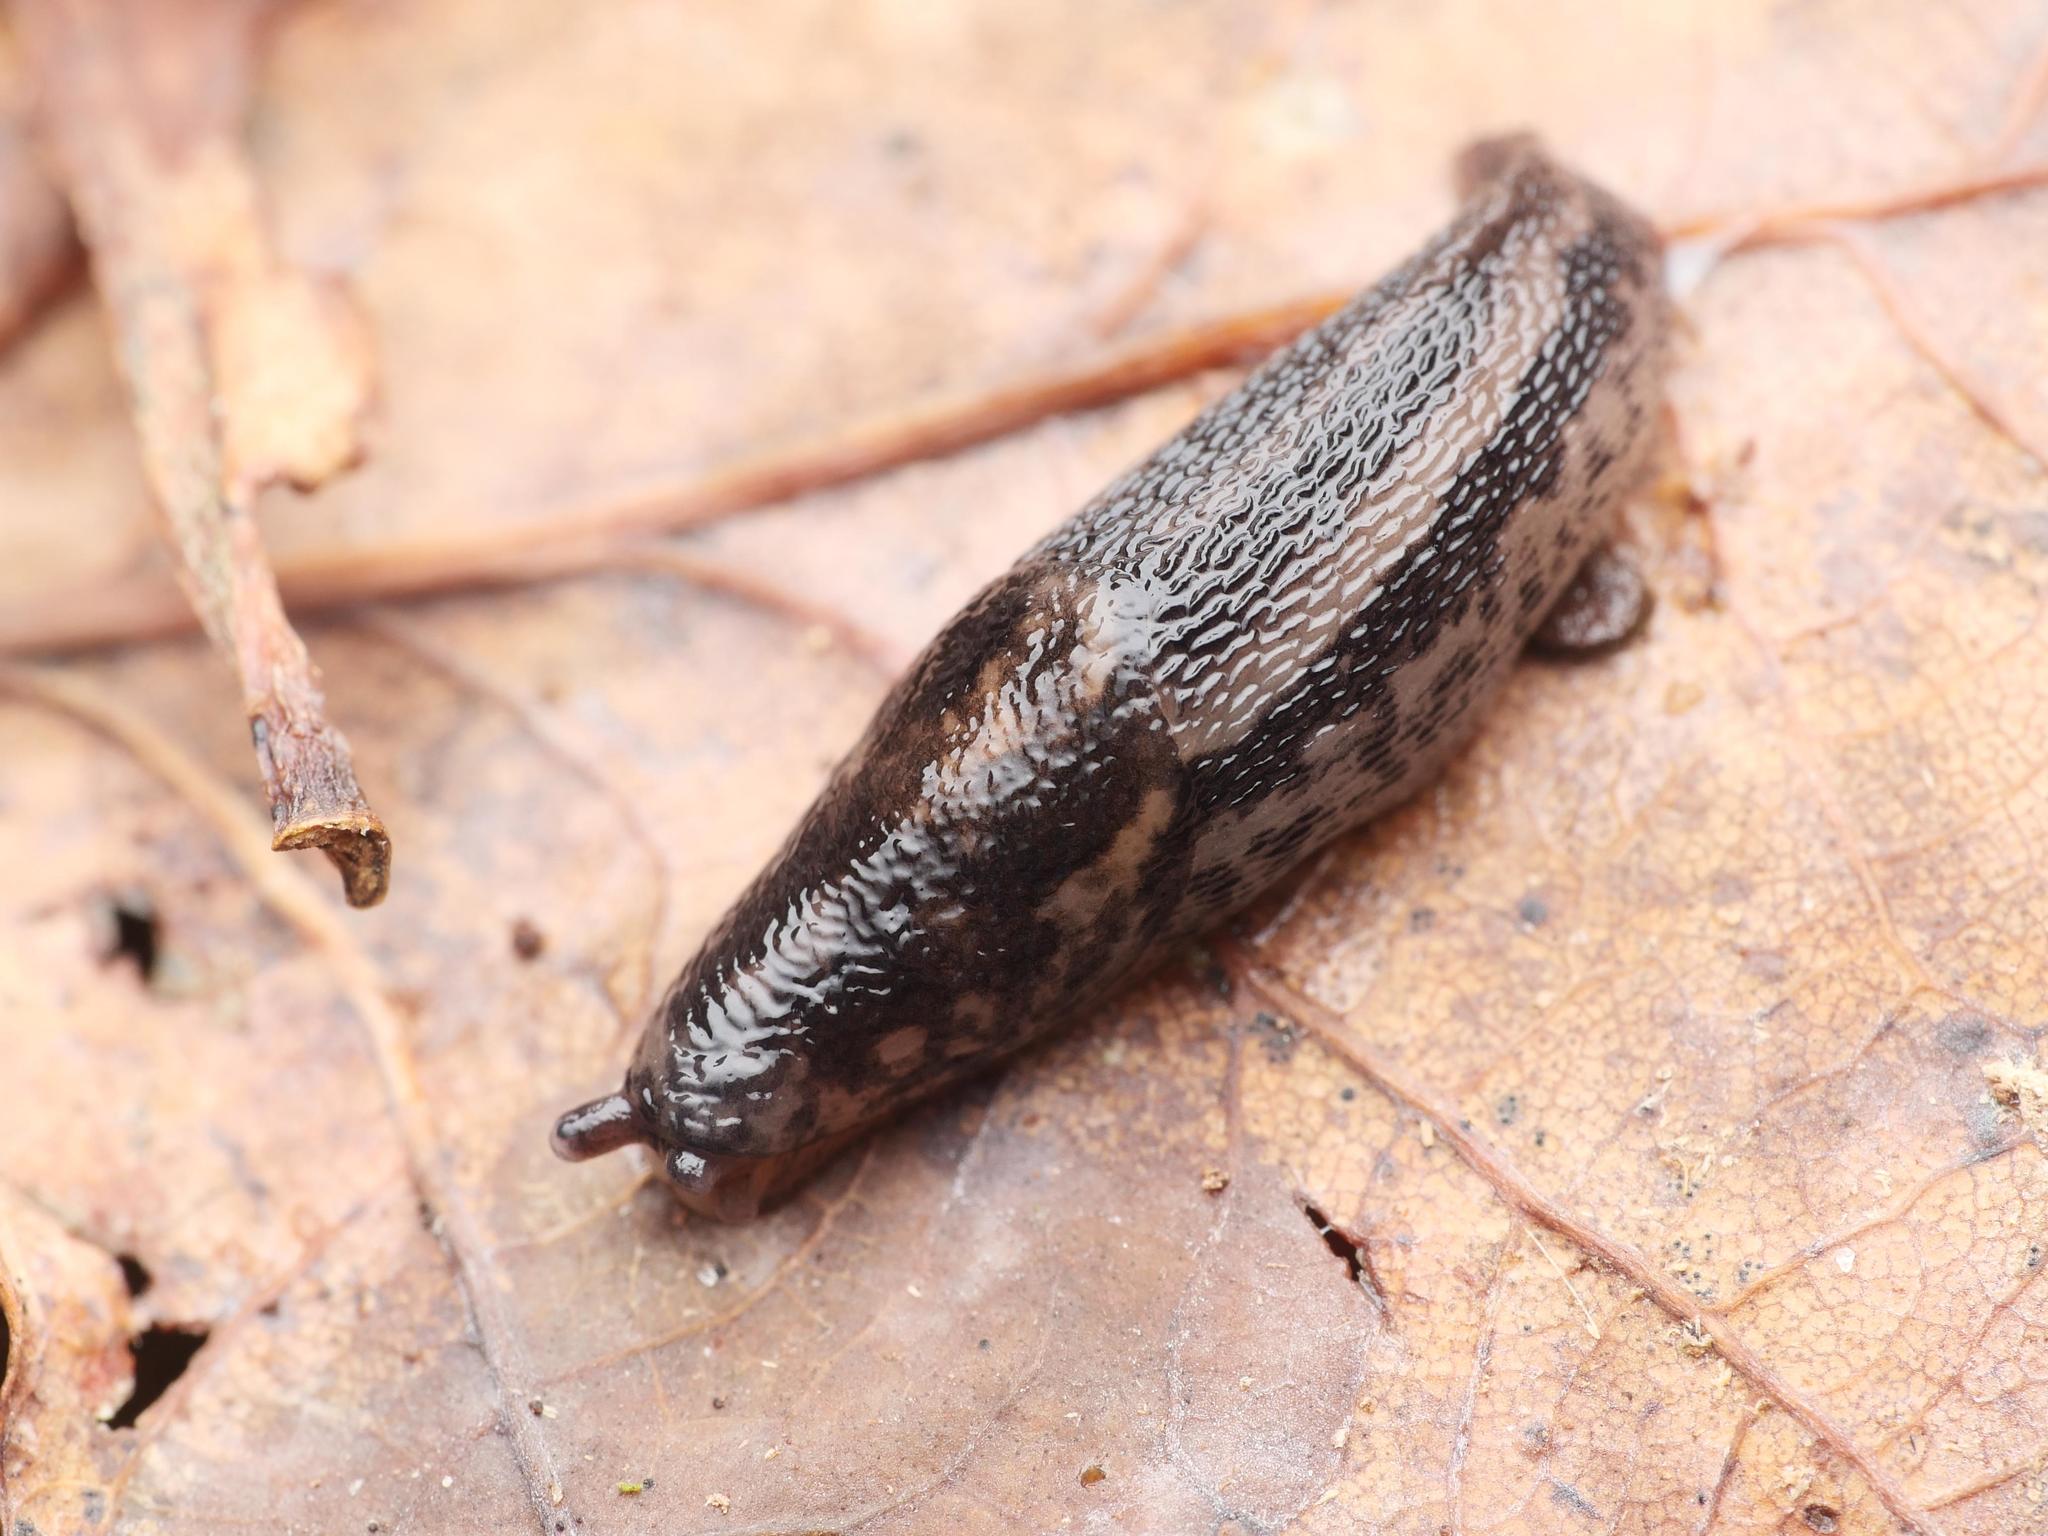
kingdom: Animalia
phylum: Mollusca
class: Gastropoda
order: Stylommatophora
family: Limacidae
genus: Limax
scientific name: Limax maximus
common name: Great grey slug
